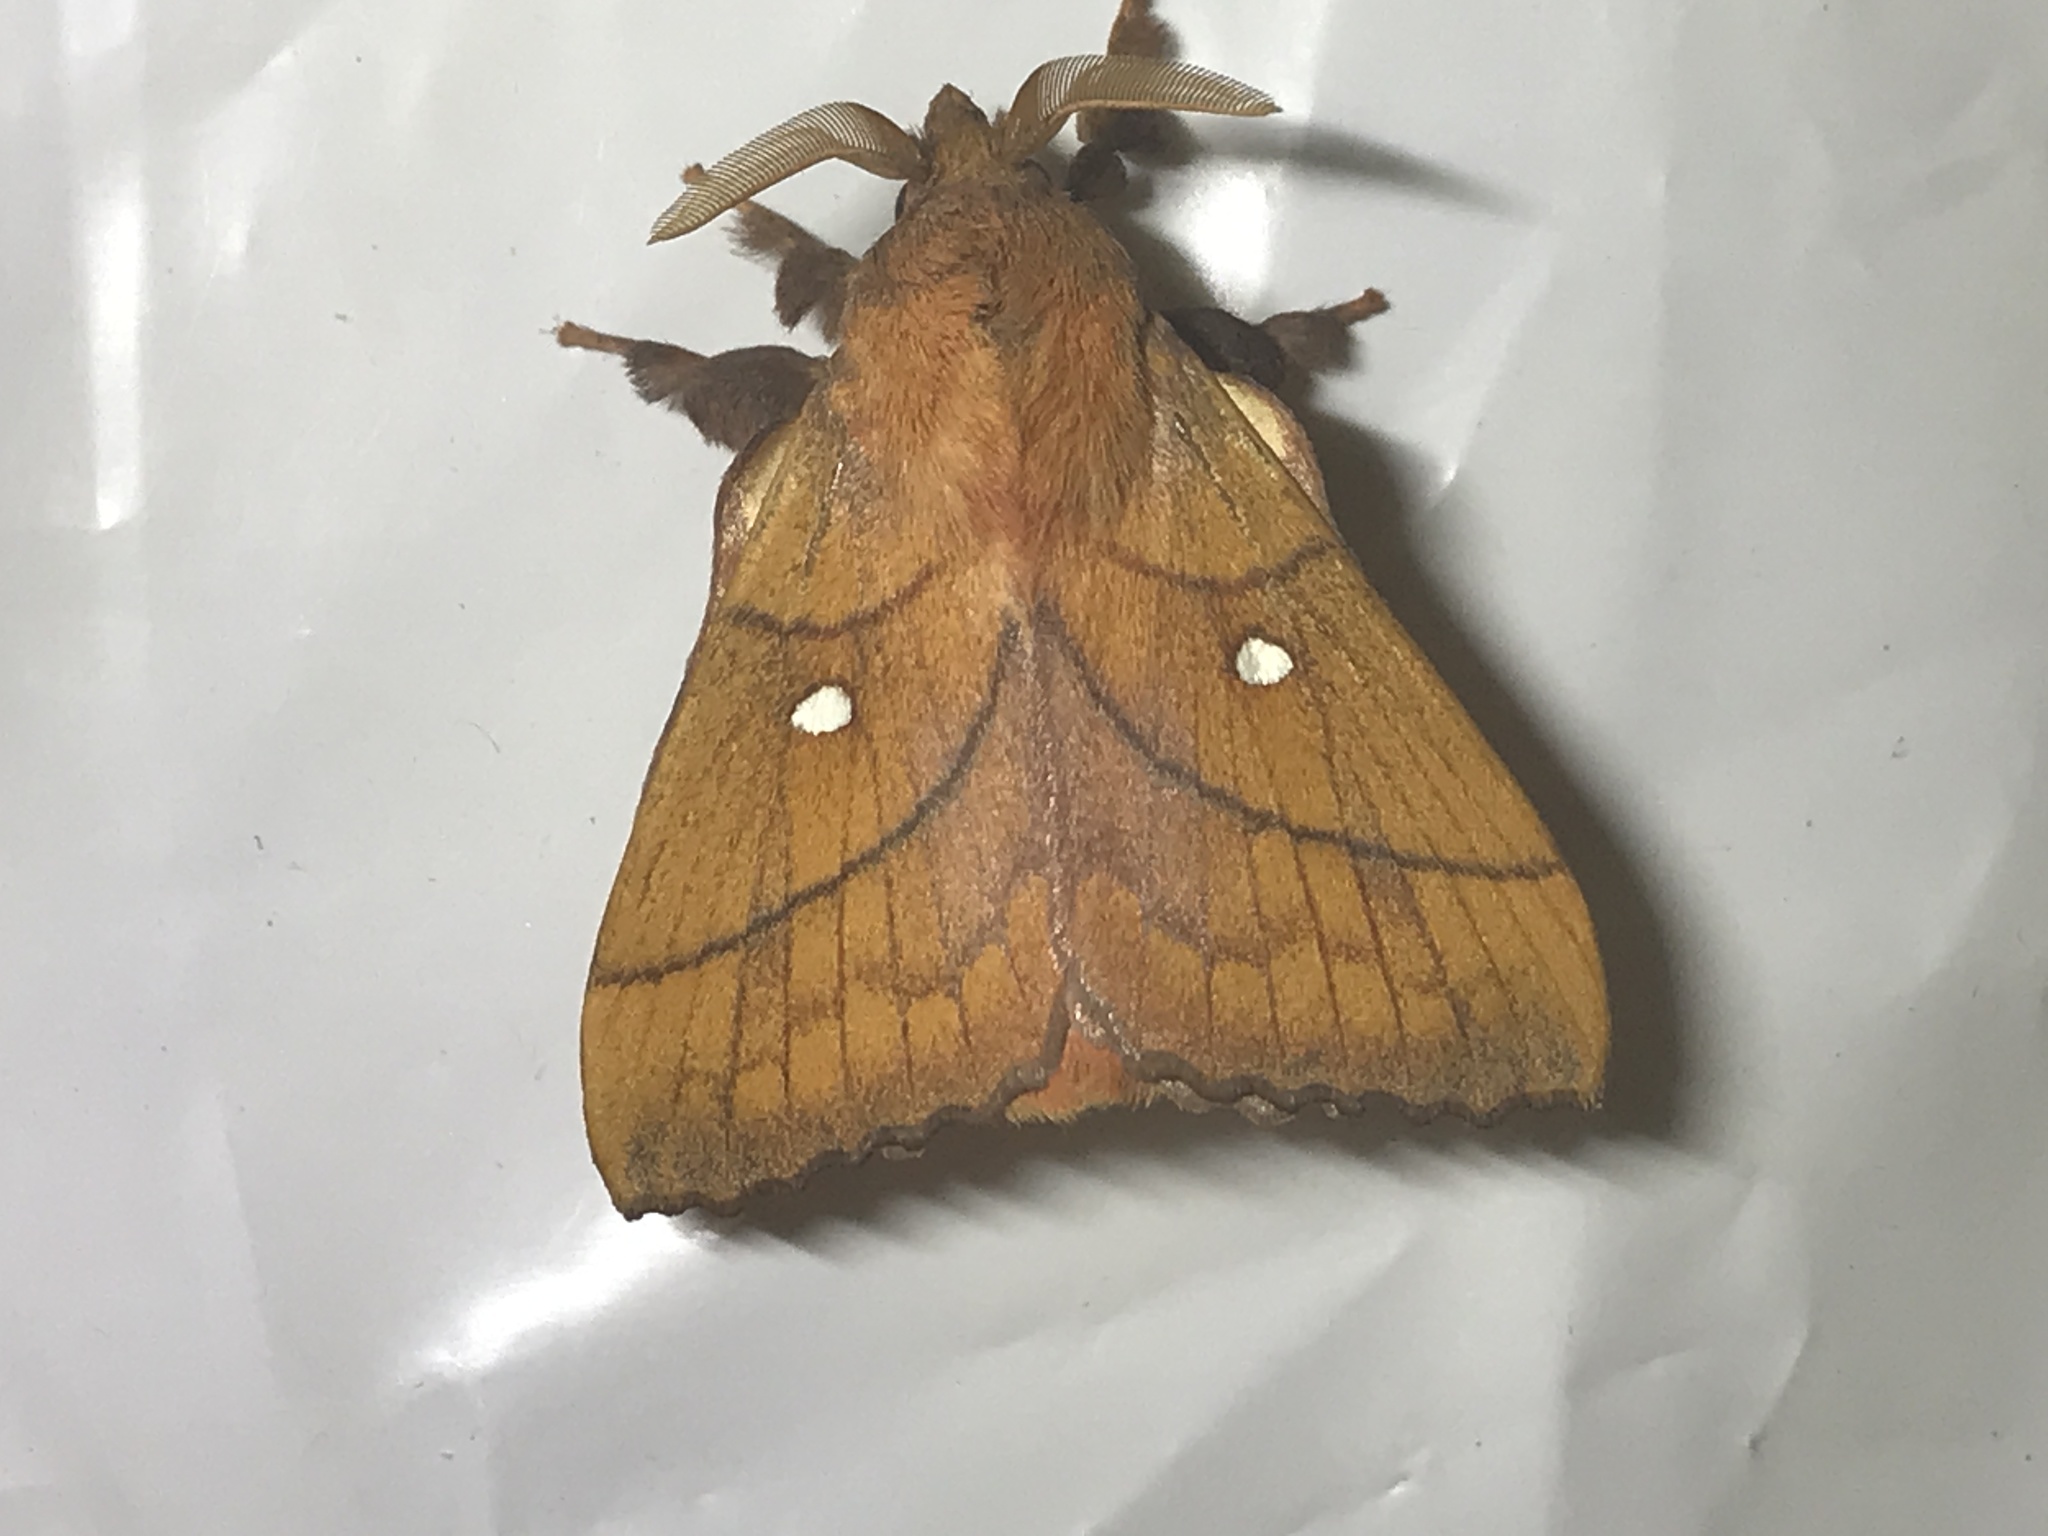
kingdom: Animalia
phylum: Arthropoda
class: Insecta
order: Lepidoptera
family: Lasiocampidae
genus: Odonestis
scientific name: Odonestis pruni
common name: Plum lappet
